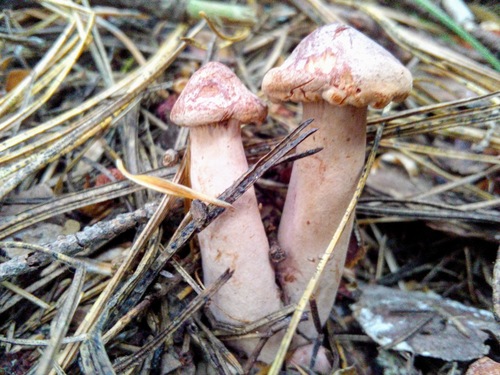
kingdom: Fungi
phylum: Basidiomycota
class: Agaricomycetes
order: Russulales
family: Russulaceae
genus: Lactarius
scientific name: Lactarius rufus
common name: Rufous milk-cap
